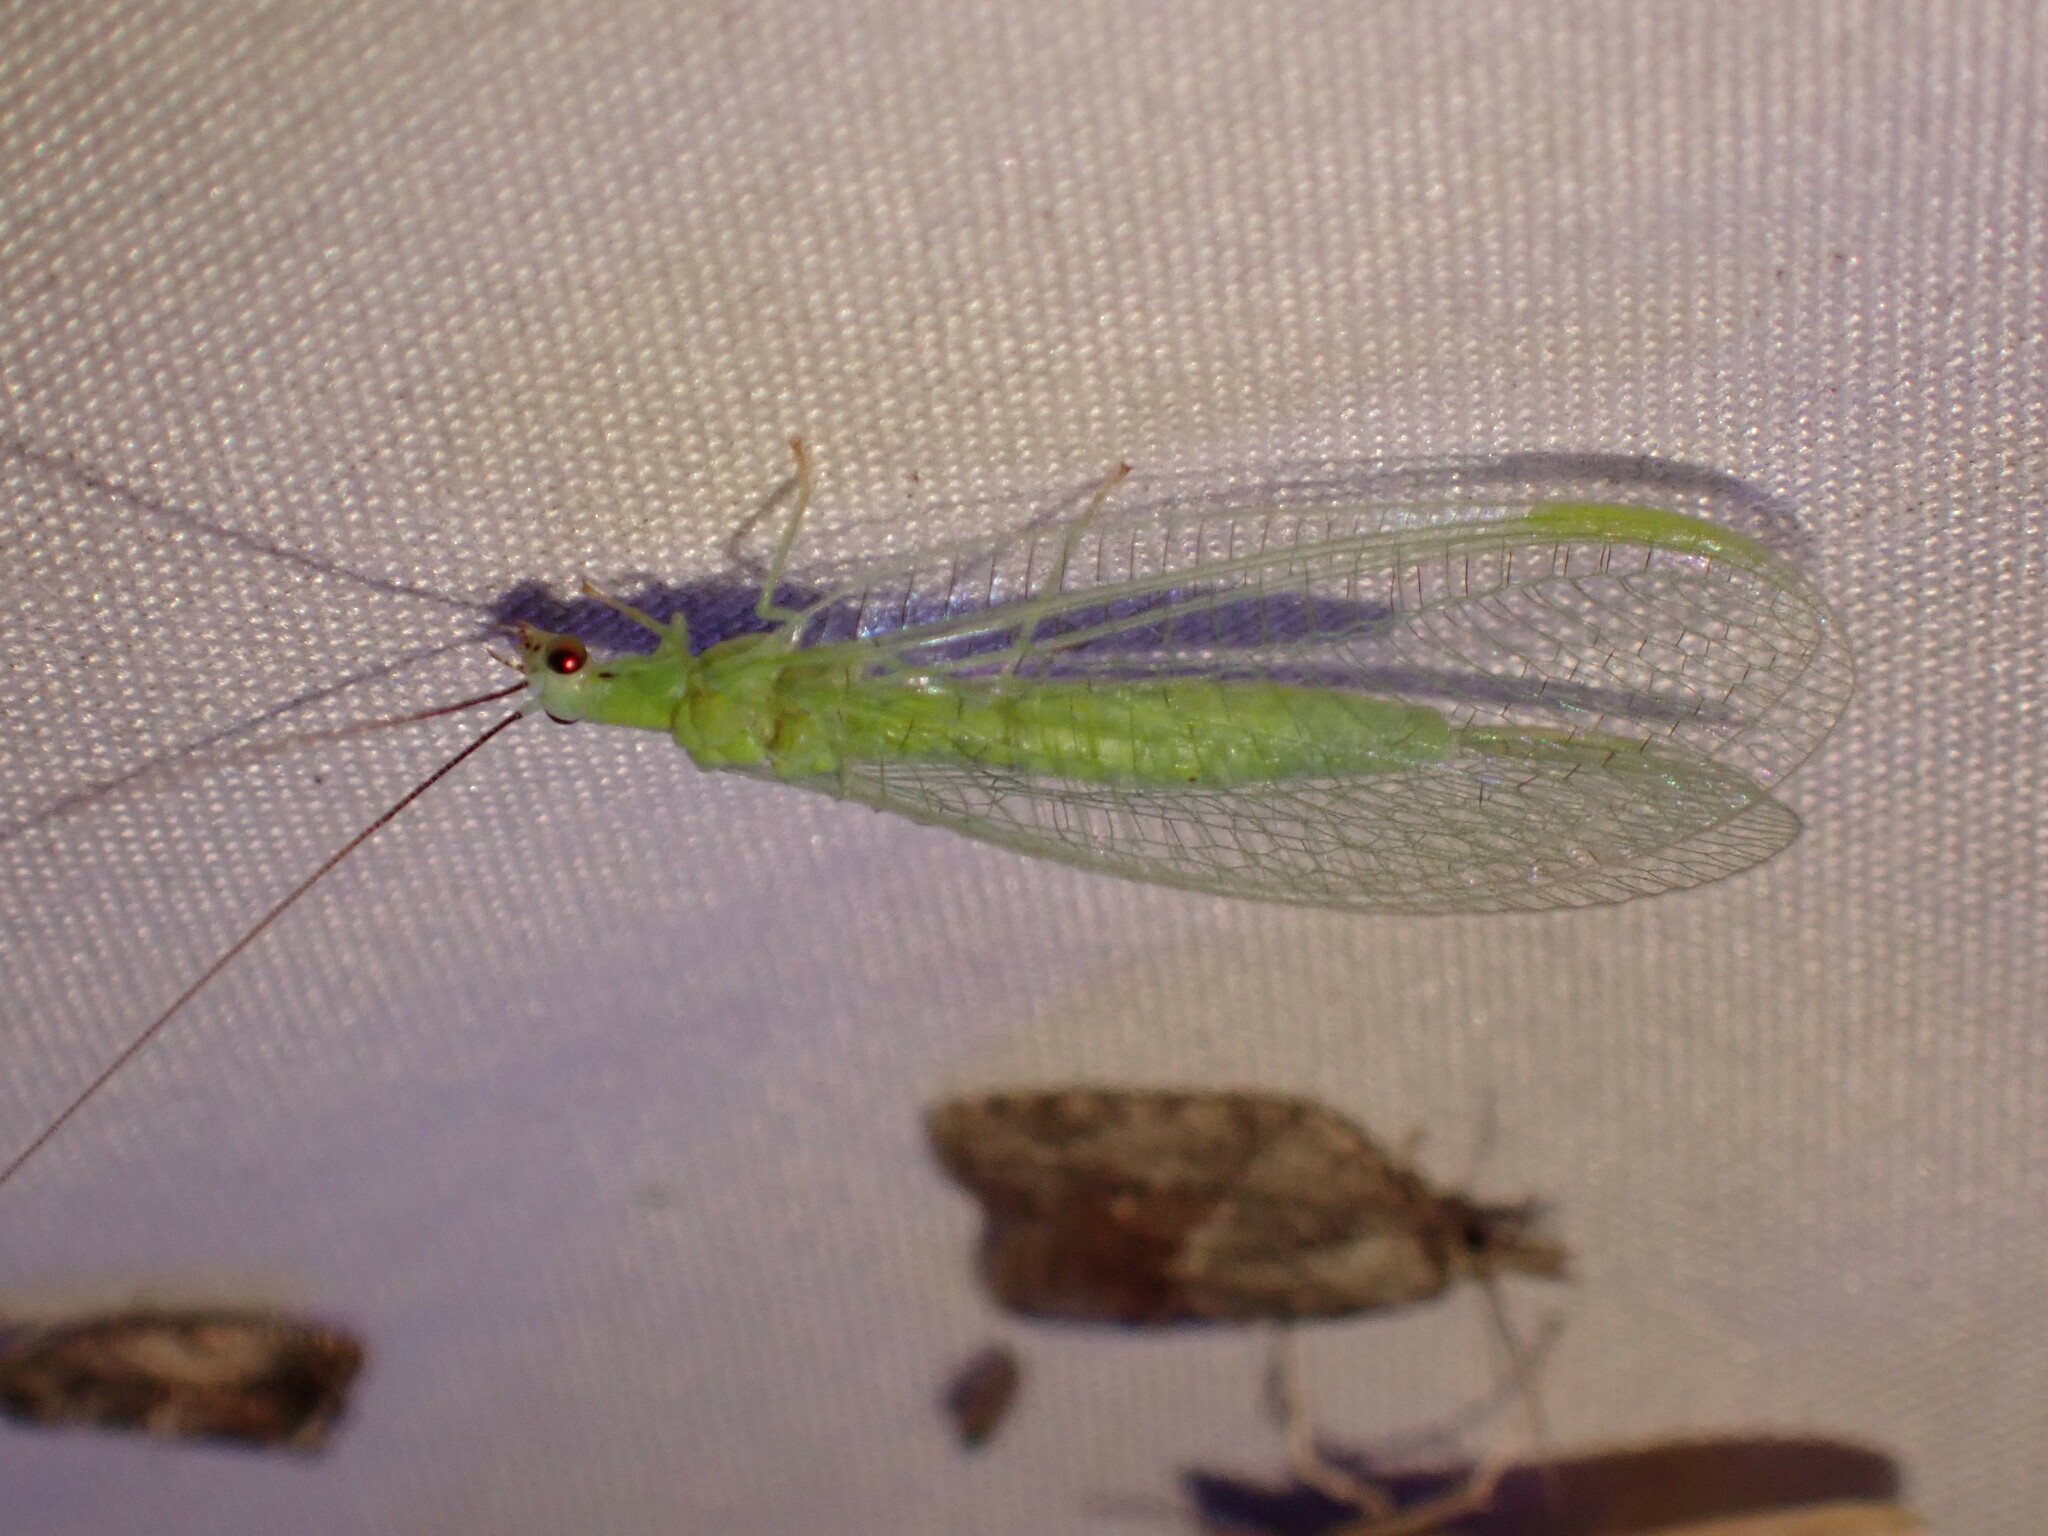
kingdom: Animalia
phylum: Arthropoda
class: Insecta
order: Neuroptera
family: Chrysopidae
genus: Chrysopa
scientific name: Chrysopa nigricornis
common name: Black-horned green lacewing
